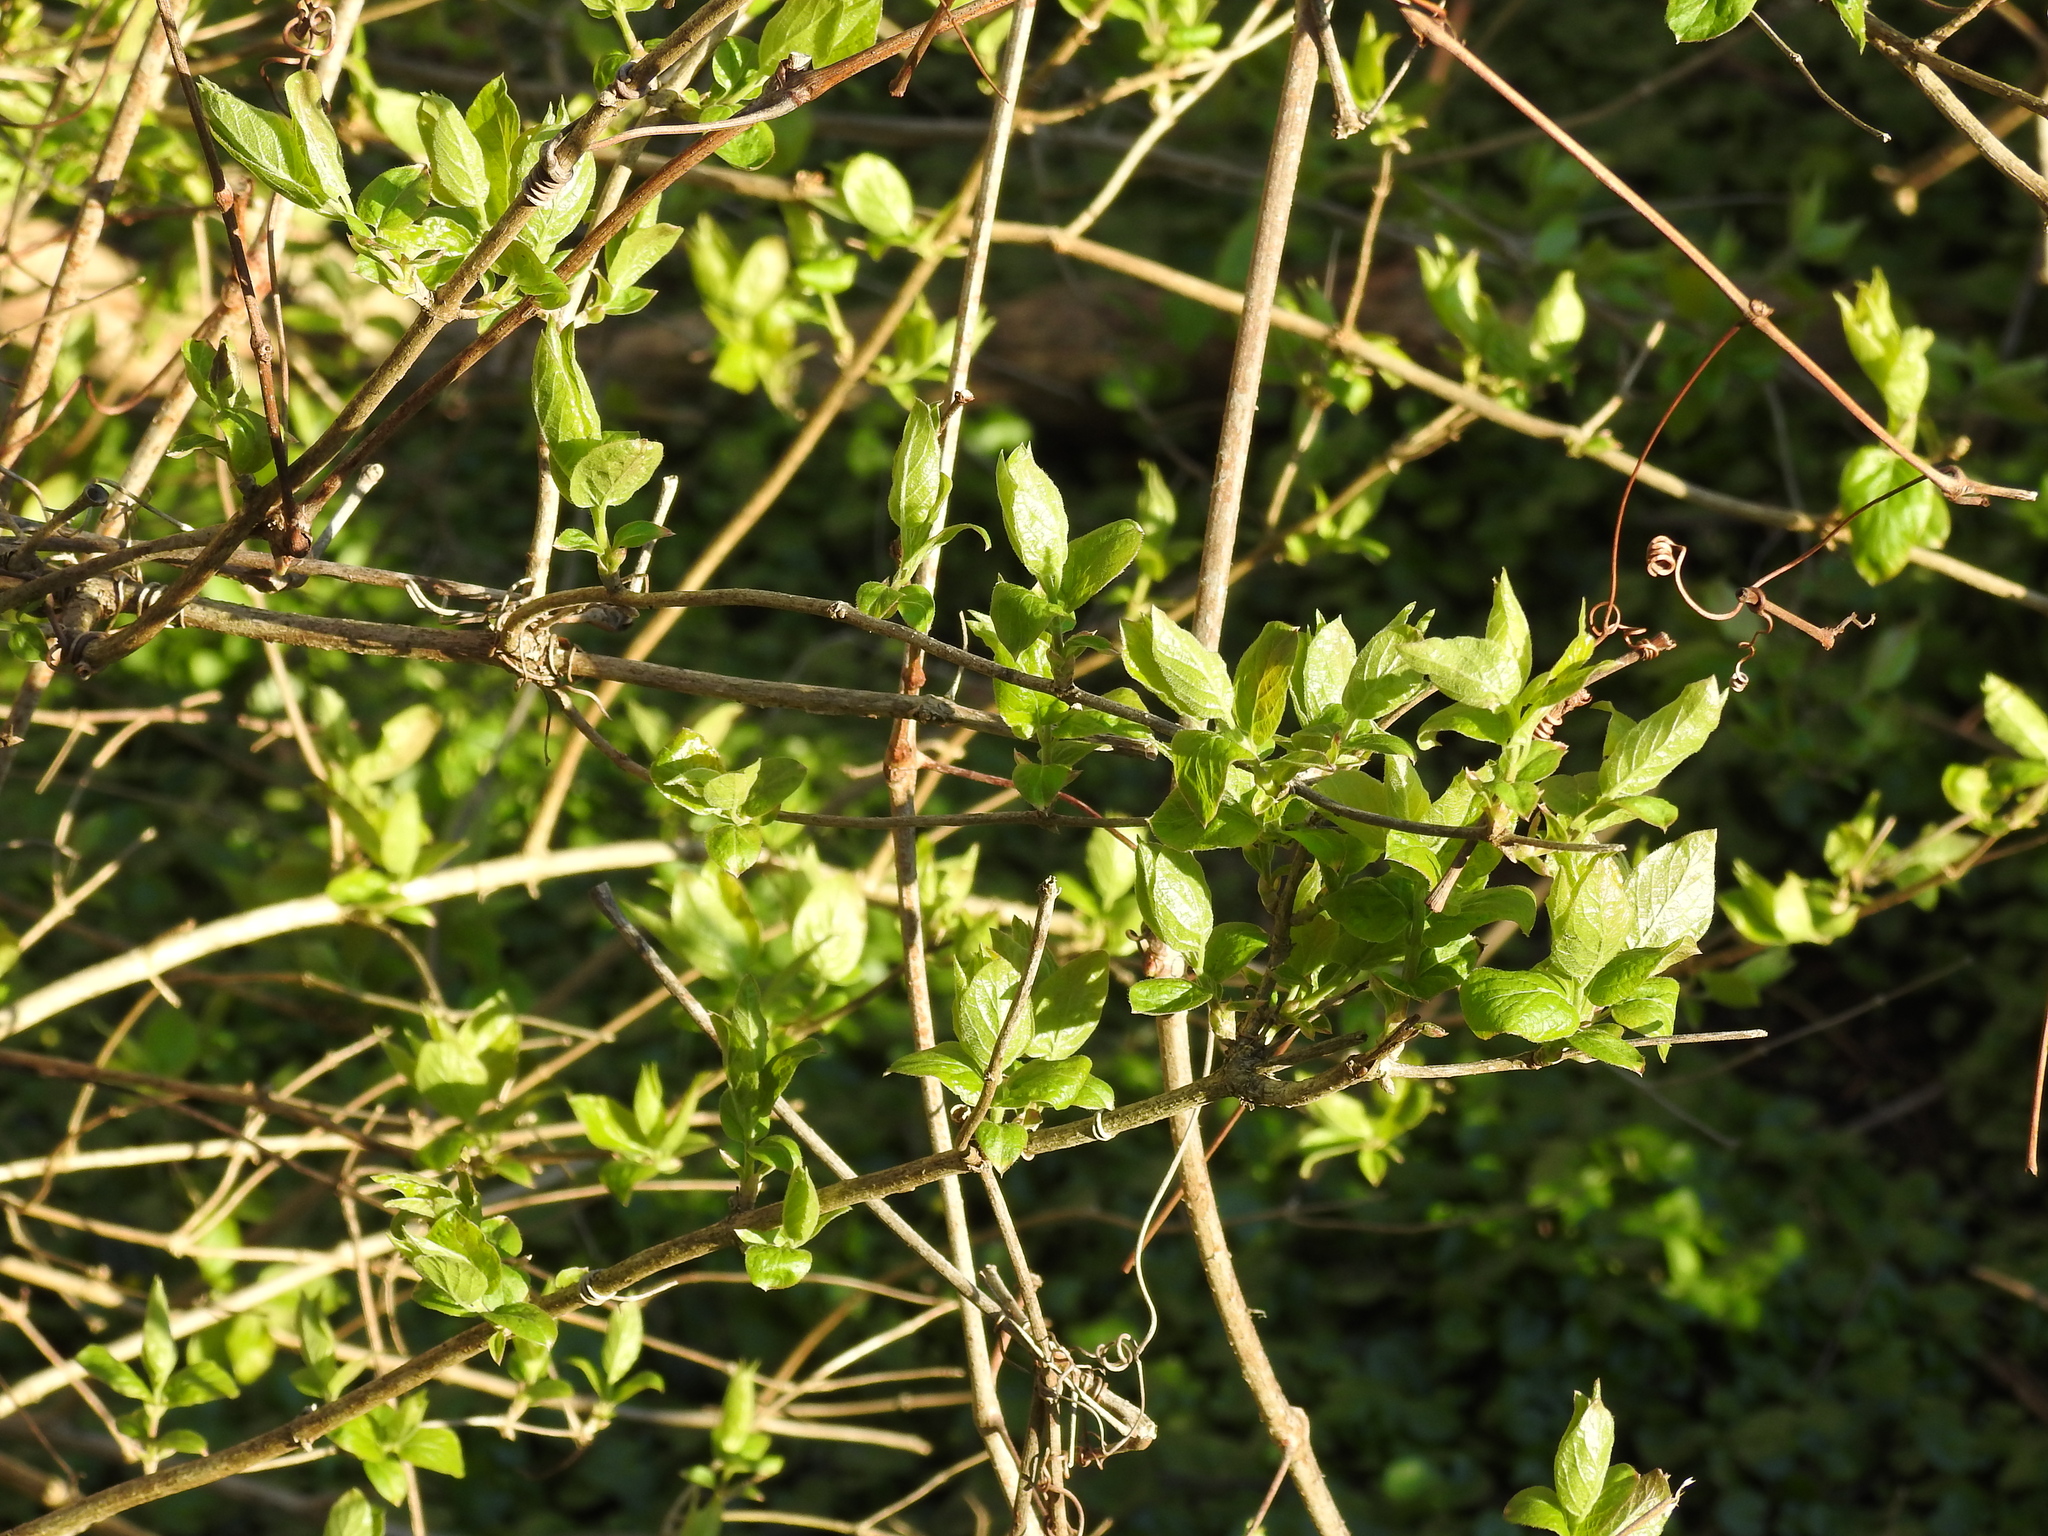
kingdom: Plantae
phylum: Tracheophyta
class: Magnoliopsida
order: Dipsacales
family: Caprifoliaceae
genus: Lonicera
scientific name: Lonicera maackii
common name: Amur honeysuckle
